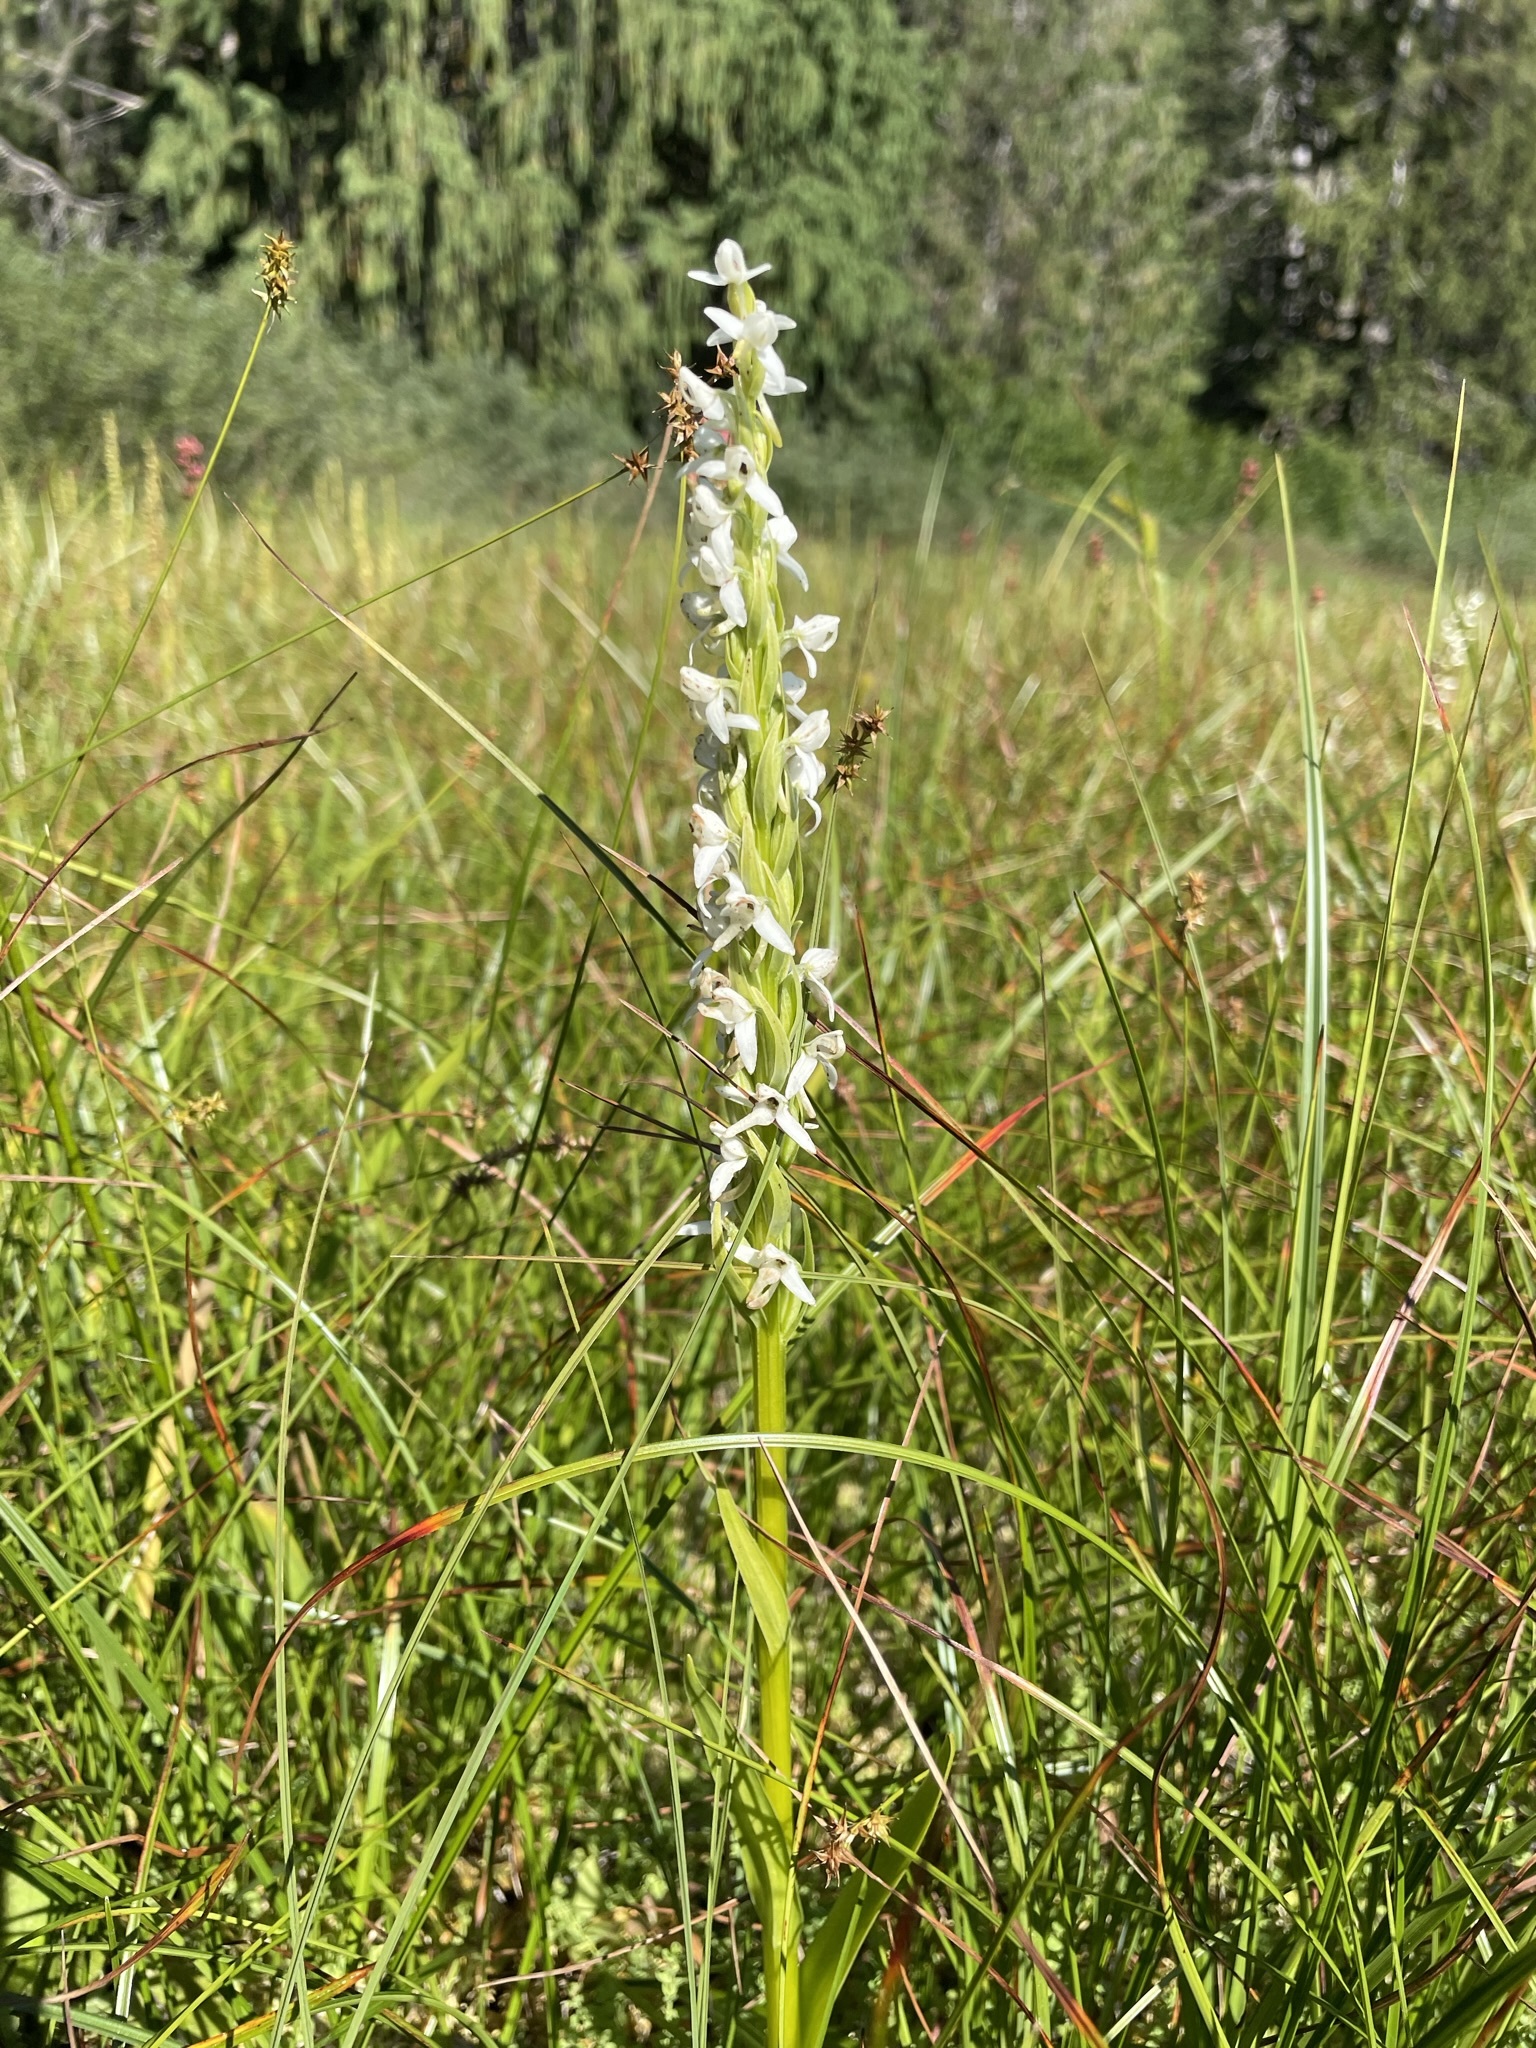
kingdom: Plantae
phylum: Tracheophyta
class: Liliopsida
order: Asparagales
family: Orchidaceae
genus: Platanthera
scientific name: Platanthera dilatata
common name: Bog candles
